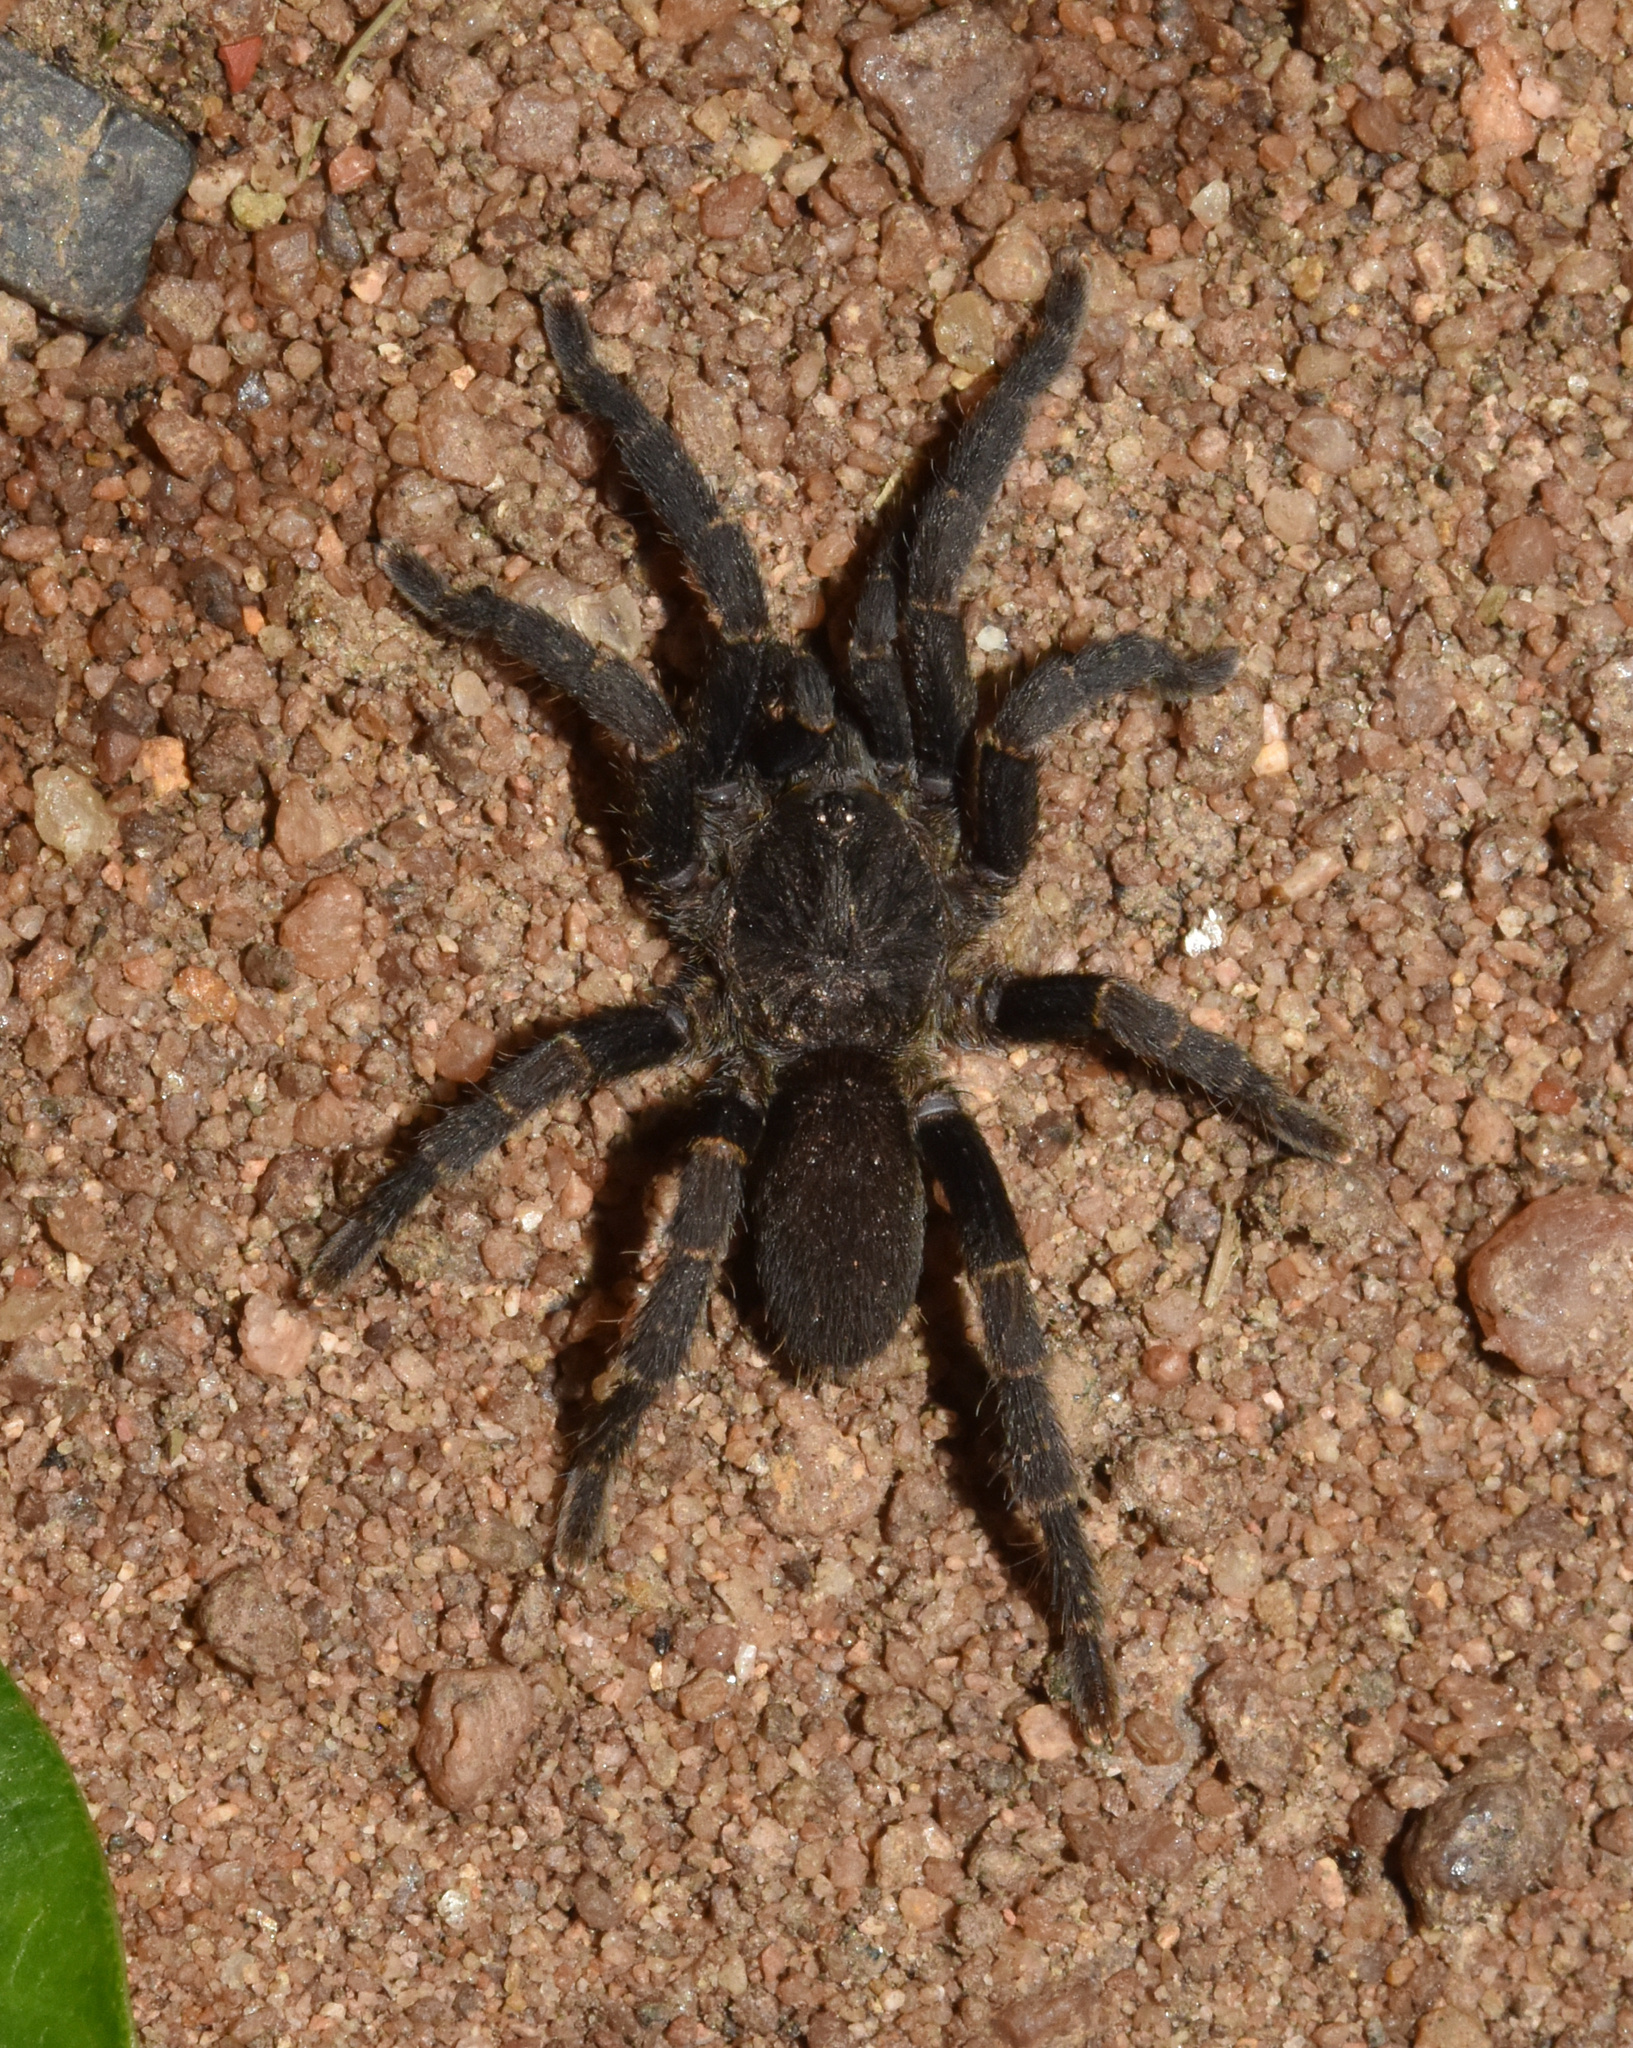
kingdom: Animalia
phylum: Arthropoda
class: Arachnida
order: Araneae
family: Theraphosidae
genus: Brachionopus
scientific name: Brachionopus robustus
